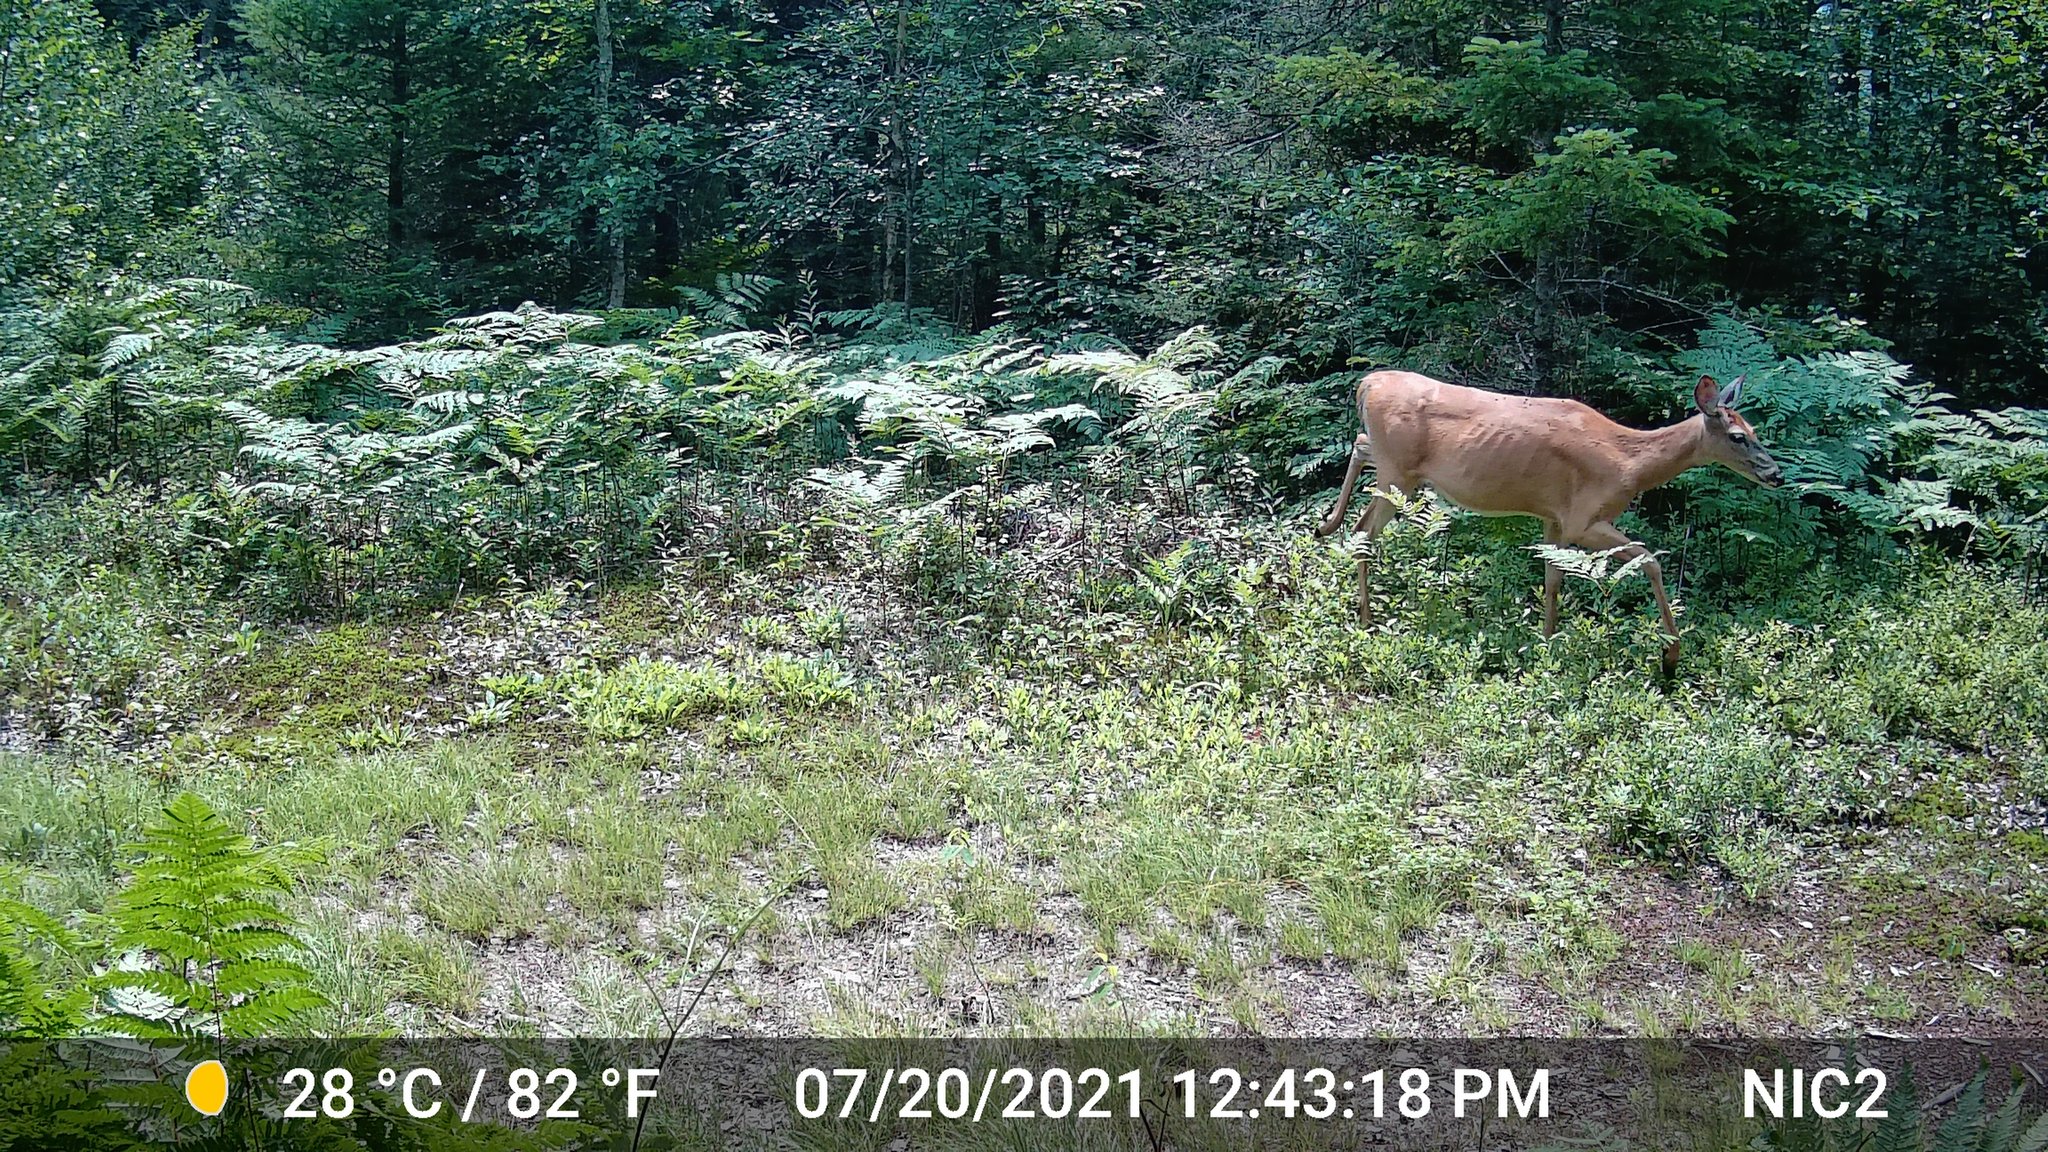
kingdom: Animalia
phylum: Chordata
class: Mammalia
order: Artiodactyla
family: Cervidae
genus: Odocoileus
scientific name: Odocoileus virginianus
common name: White-tailed deer
